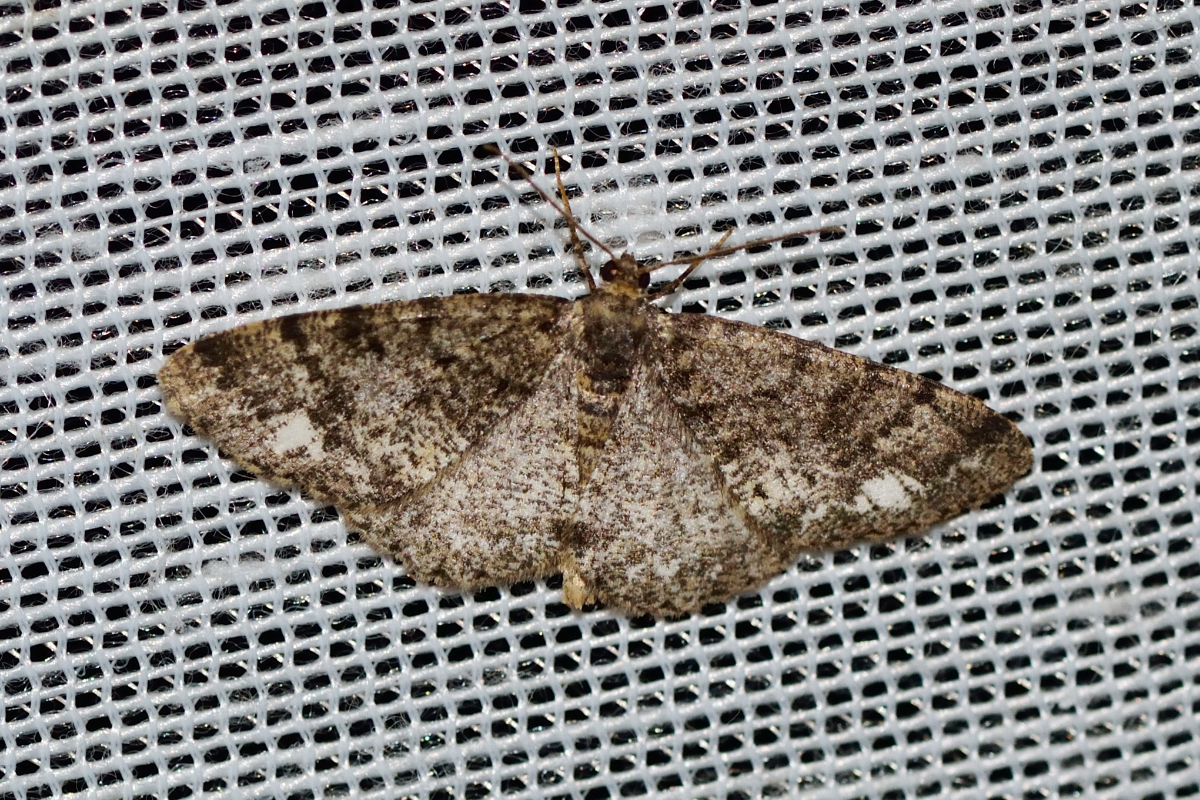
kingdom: Animalia
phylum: Arthropoda
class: Insecta
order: Lepidoptera
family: Geometridae
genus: Parectropis
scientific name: Parectropis similaria
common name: Brindled white-spot
